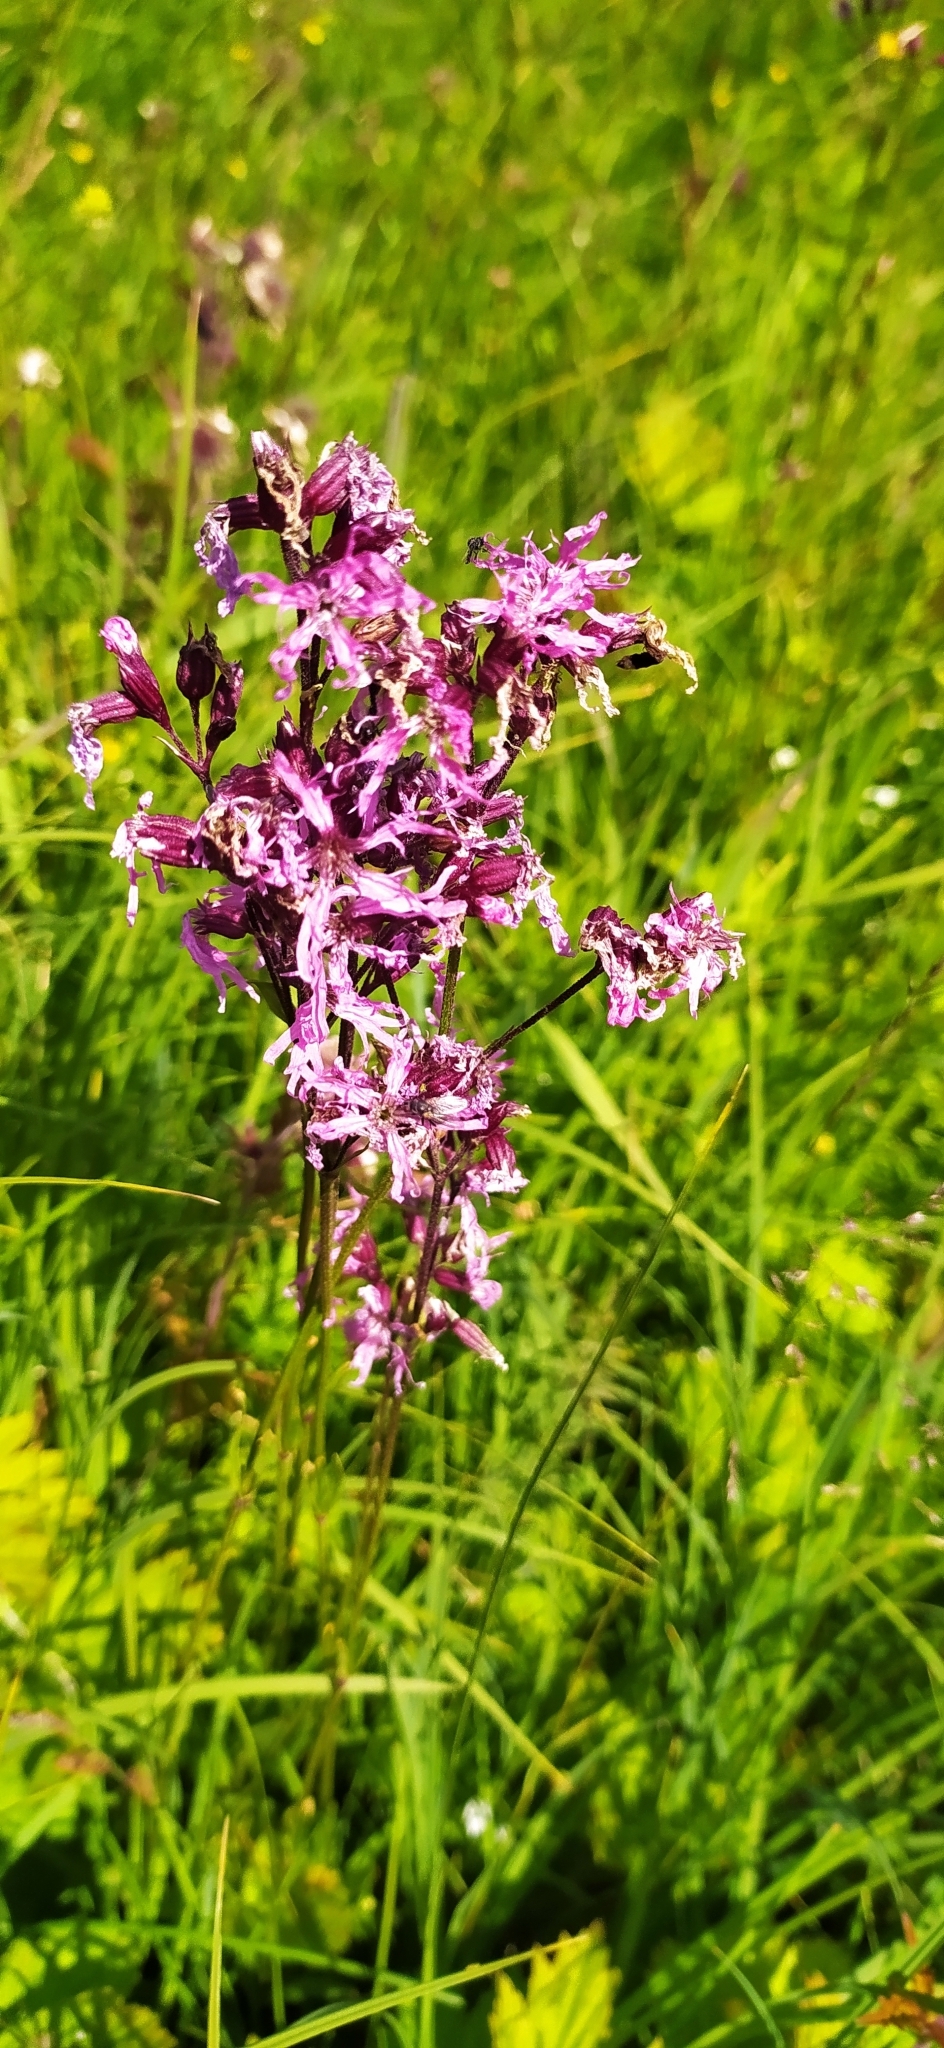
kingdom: Plantae
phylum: Tracheophyta
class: Magnoliopsida
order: Caryophyllales
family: Caryophyllaceae
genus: Silene
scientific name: Silene flos-cuculi
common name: Ragged-robin
